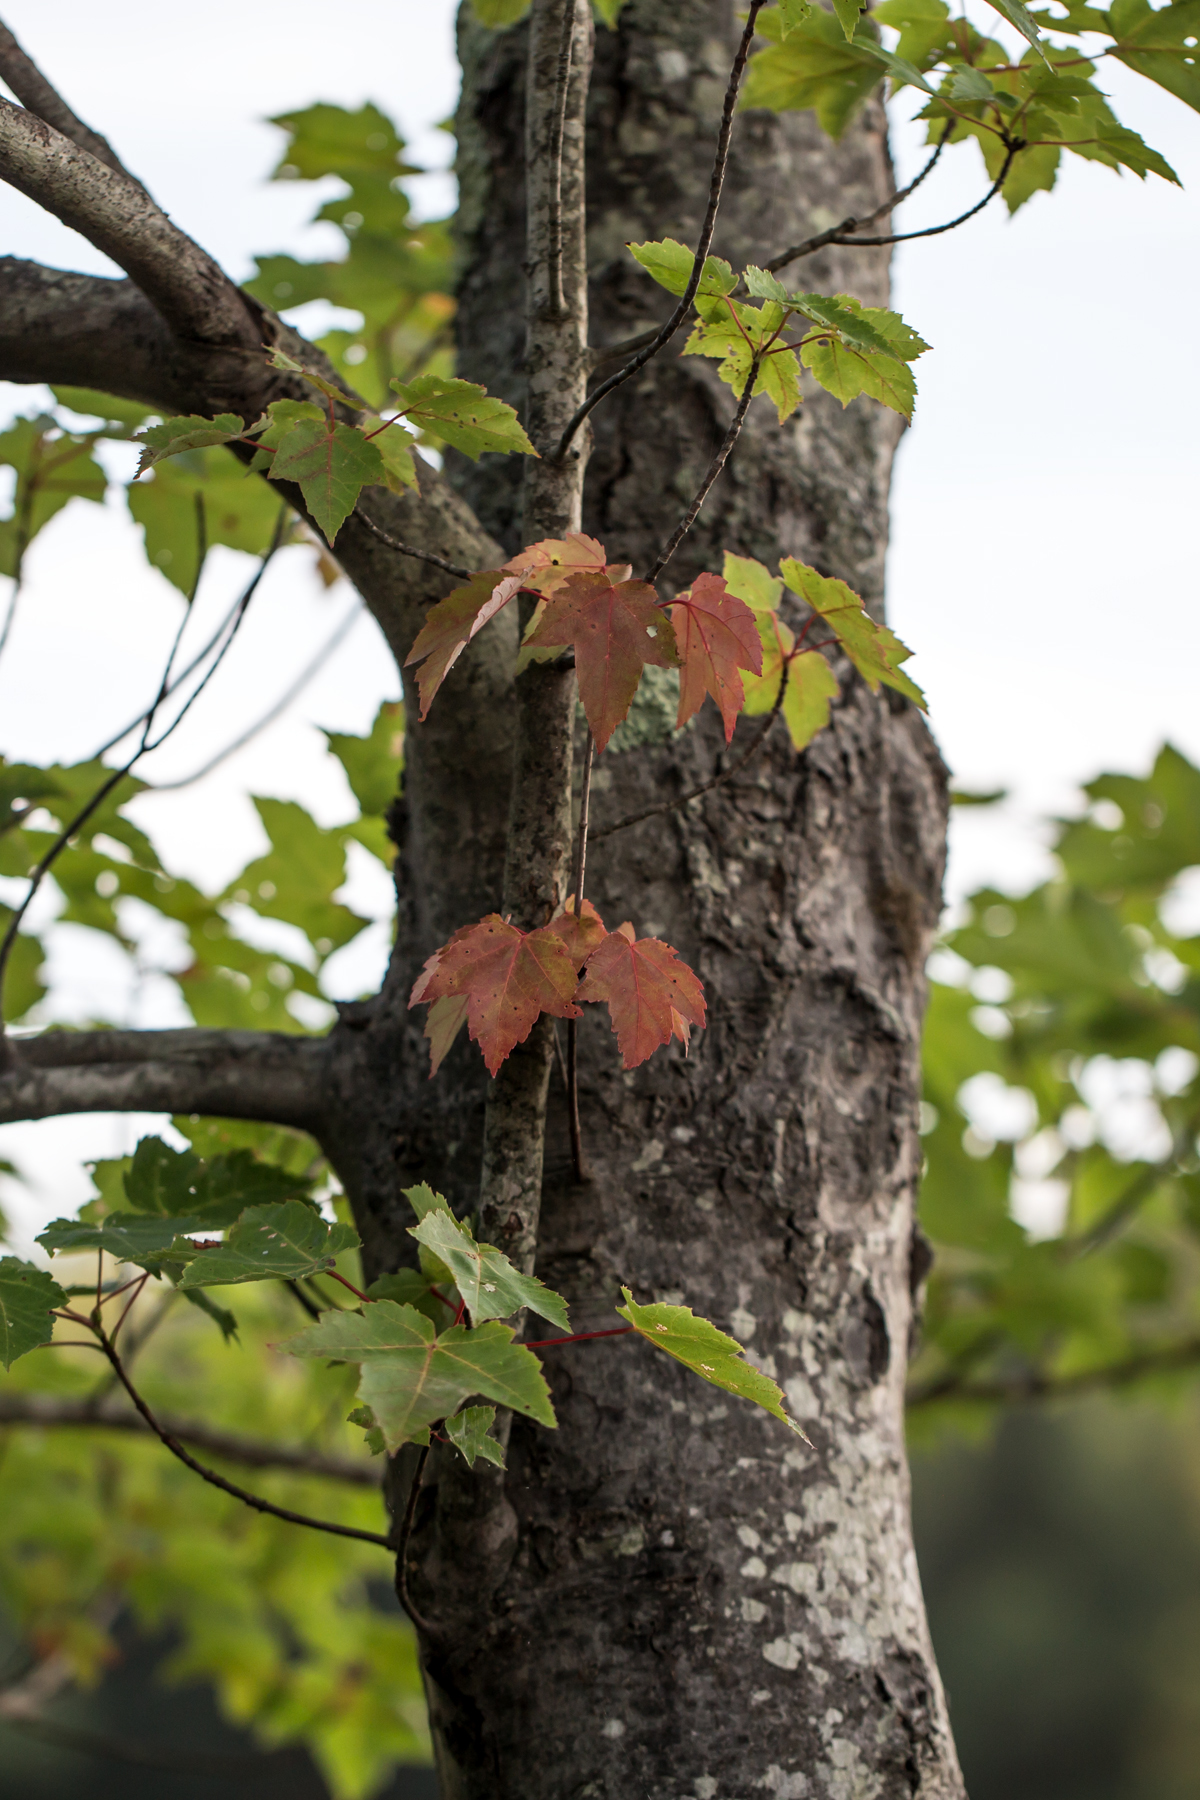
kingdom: Plantae
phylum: Tracheophyta
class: Magnoliopsida
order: Sapindales
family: Sapindaceae
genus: Acer
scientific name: Acer rubrum
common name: Red maple
